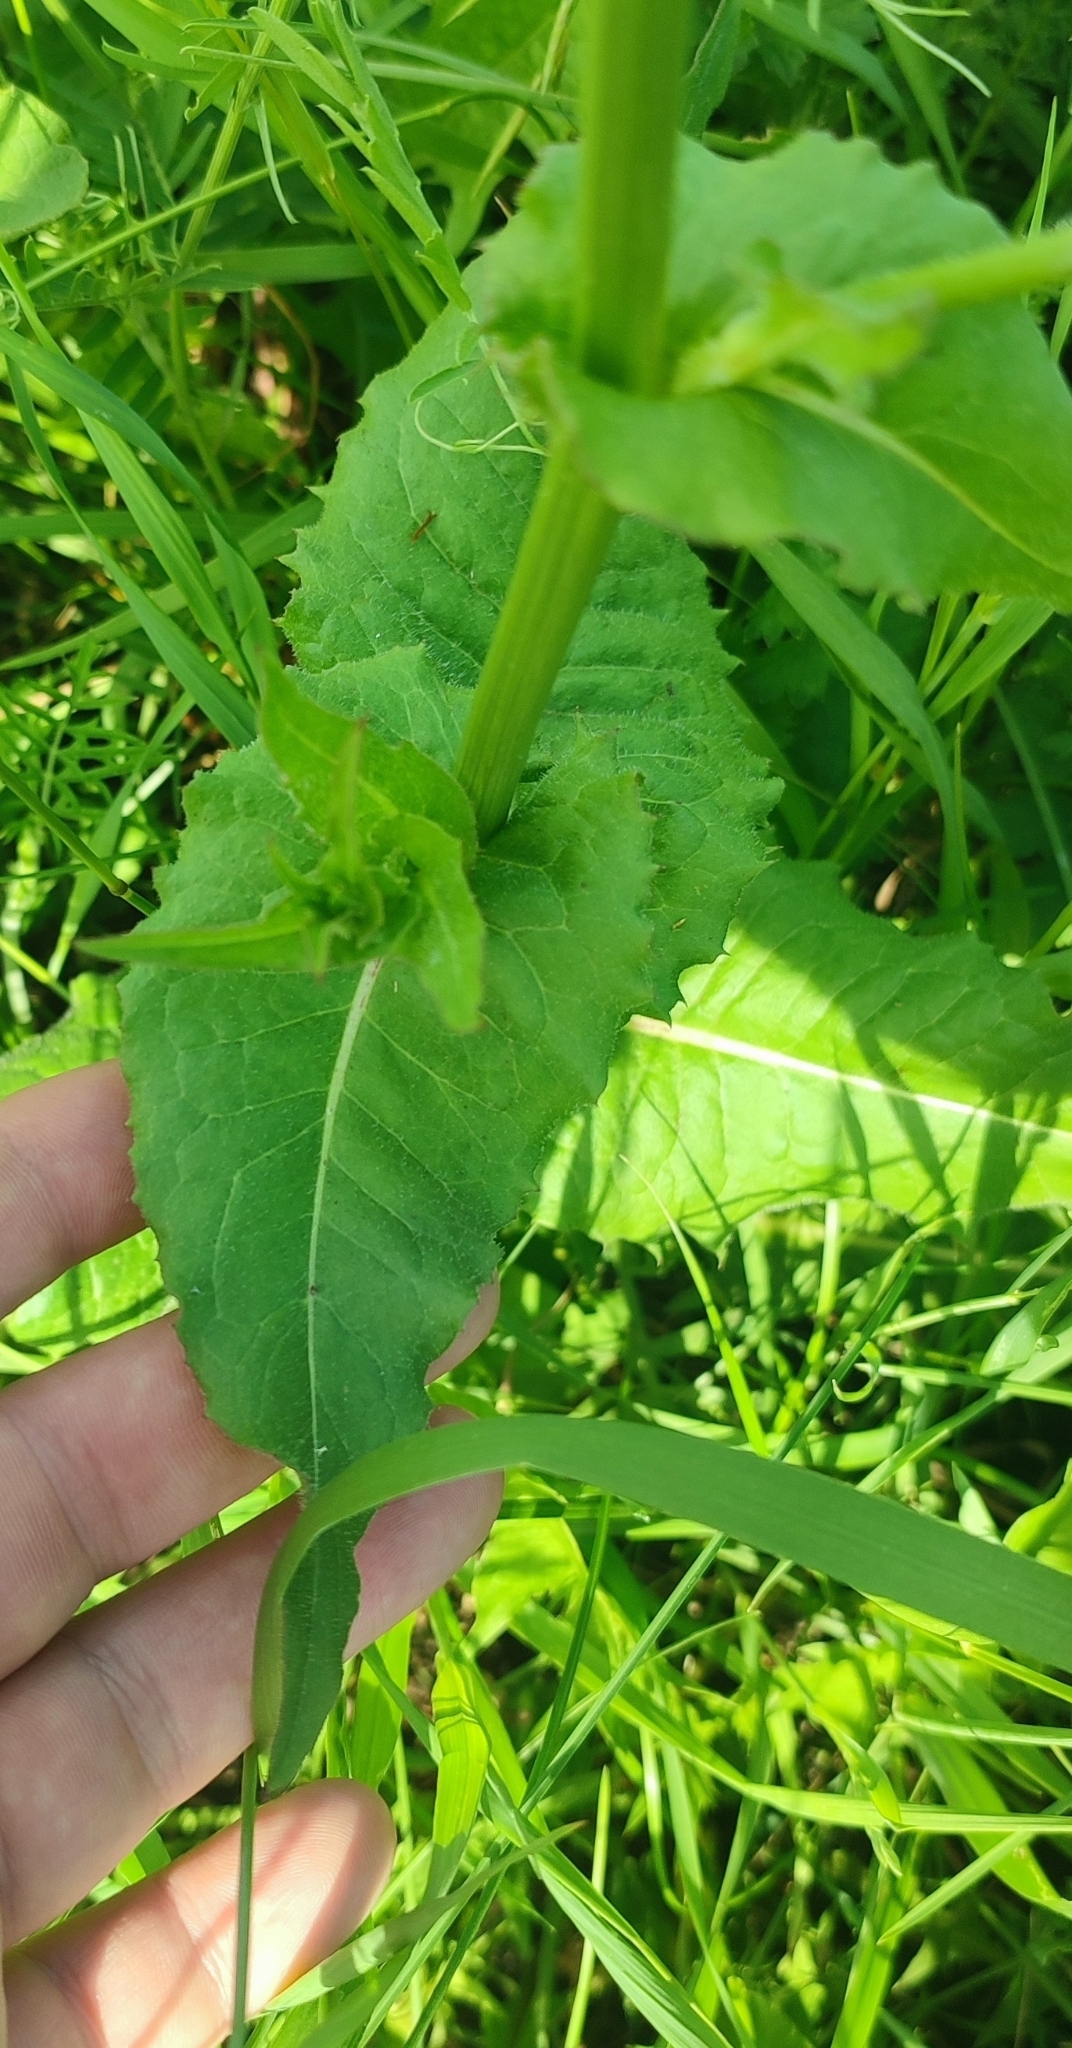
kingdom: Plantae
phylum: Tracheophyta
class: Magnoliopsida
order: Asterales
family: Asteraceae
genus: Cichorium
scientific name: Cichorium intybus
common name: Chicory
